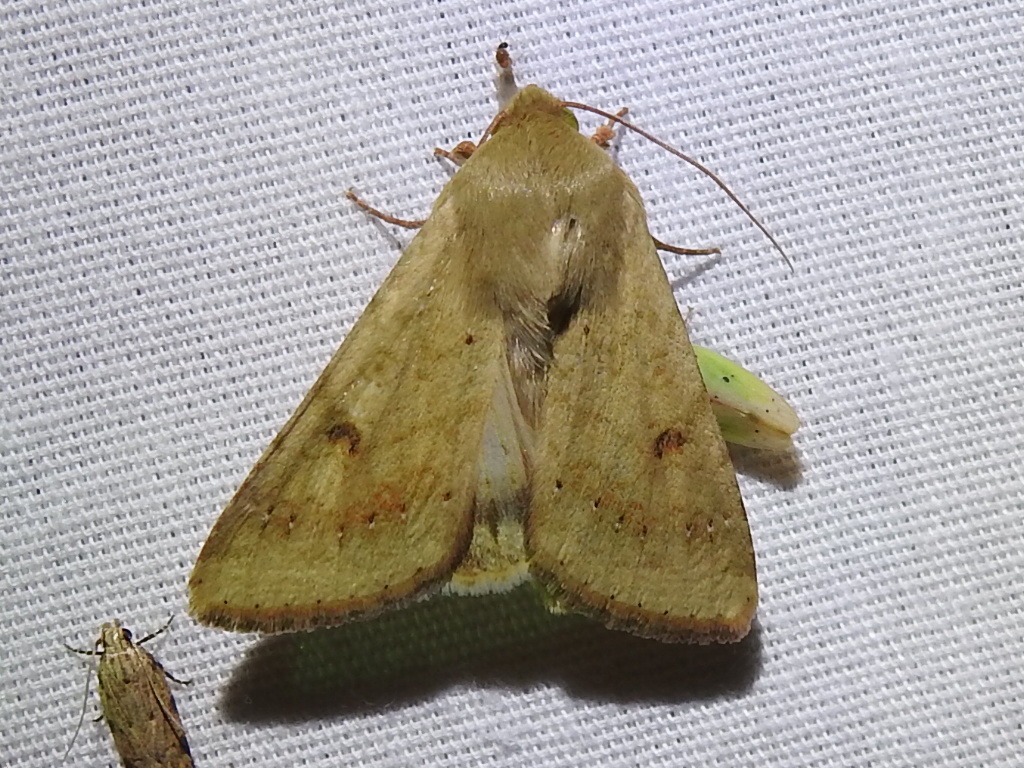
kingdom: Animalia
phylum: Arthropoda
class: Insecta
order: Lepidoptera
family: Noctuidae
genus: Helicoverpa
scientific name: Helicoverpa zea
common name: Bollworm
